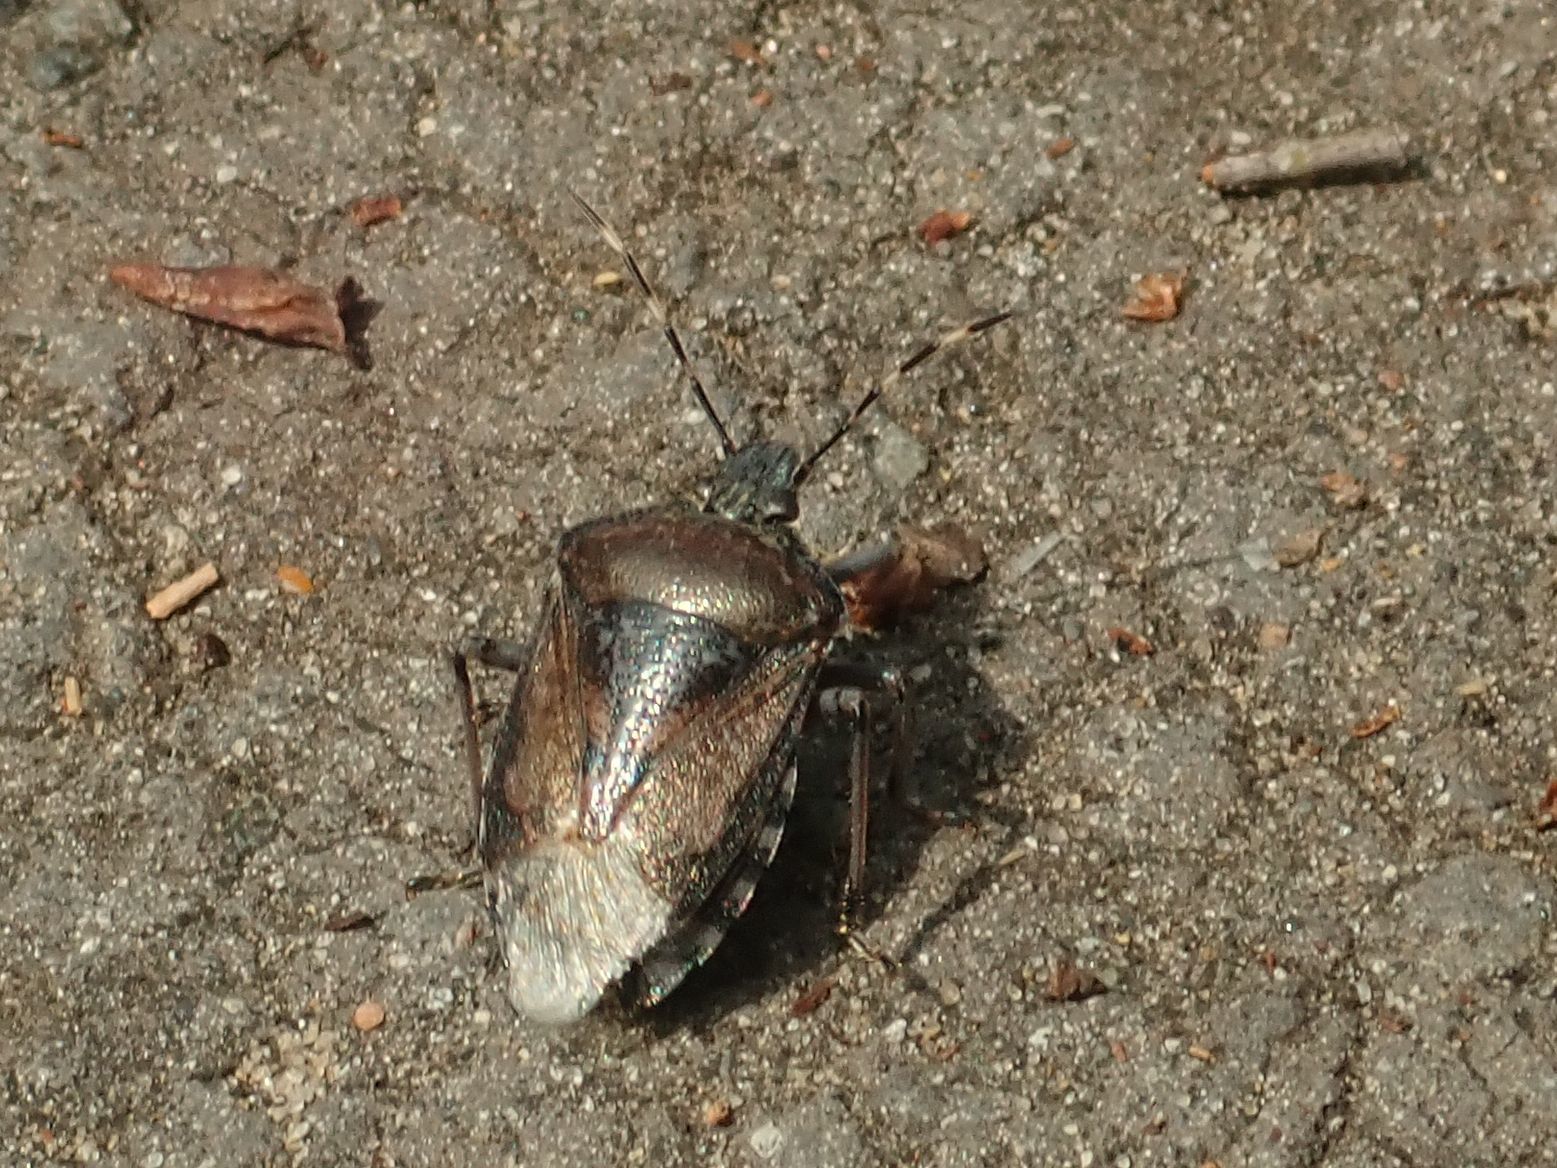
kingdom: Animalia
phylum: Arthropoda
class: Insecta
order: Hemiptera
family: Pentatomidae
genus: Rhaphigaster
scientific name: Rhaphigaster nebulosa
